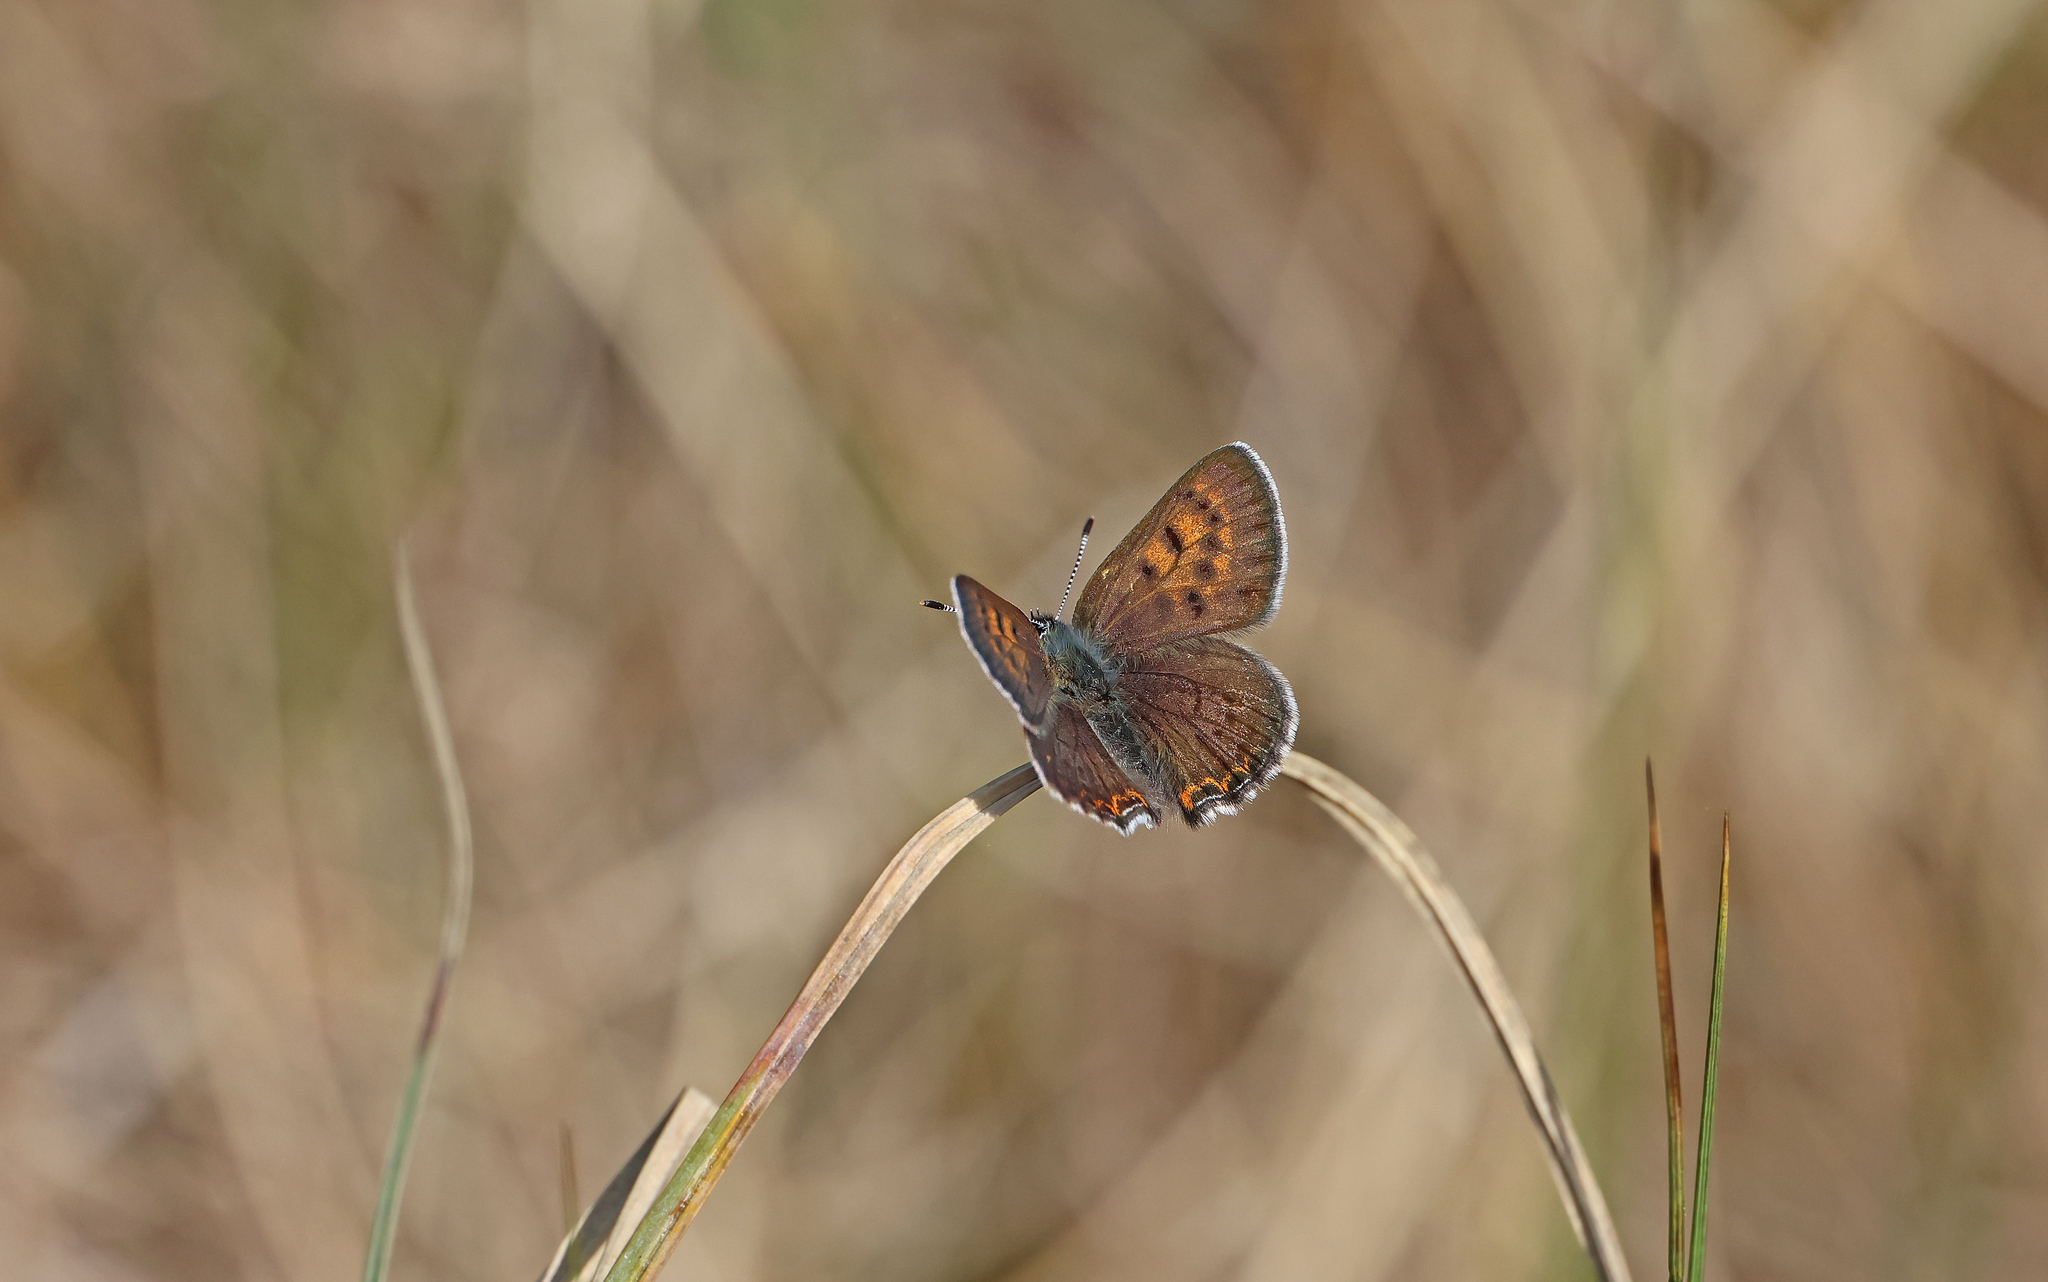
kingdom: Animalia
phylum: Arthropoda
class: Insecta
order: Lepidoptera
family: Lycaenidae
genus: Helleia
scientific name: Helleia helle
